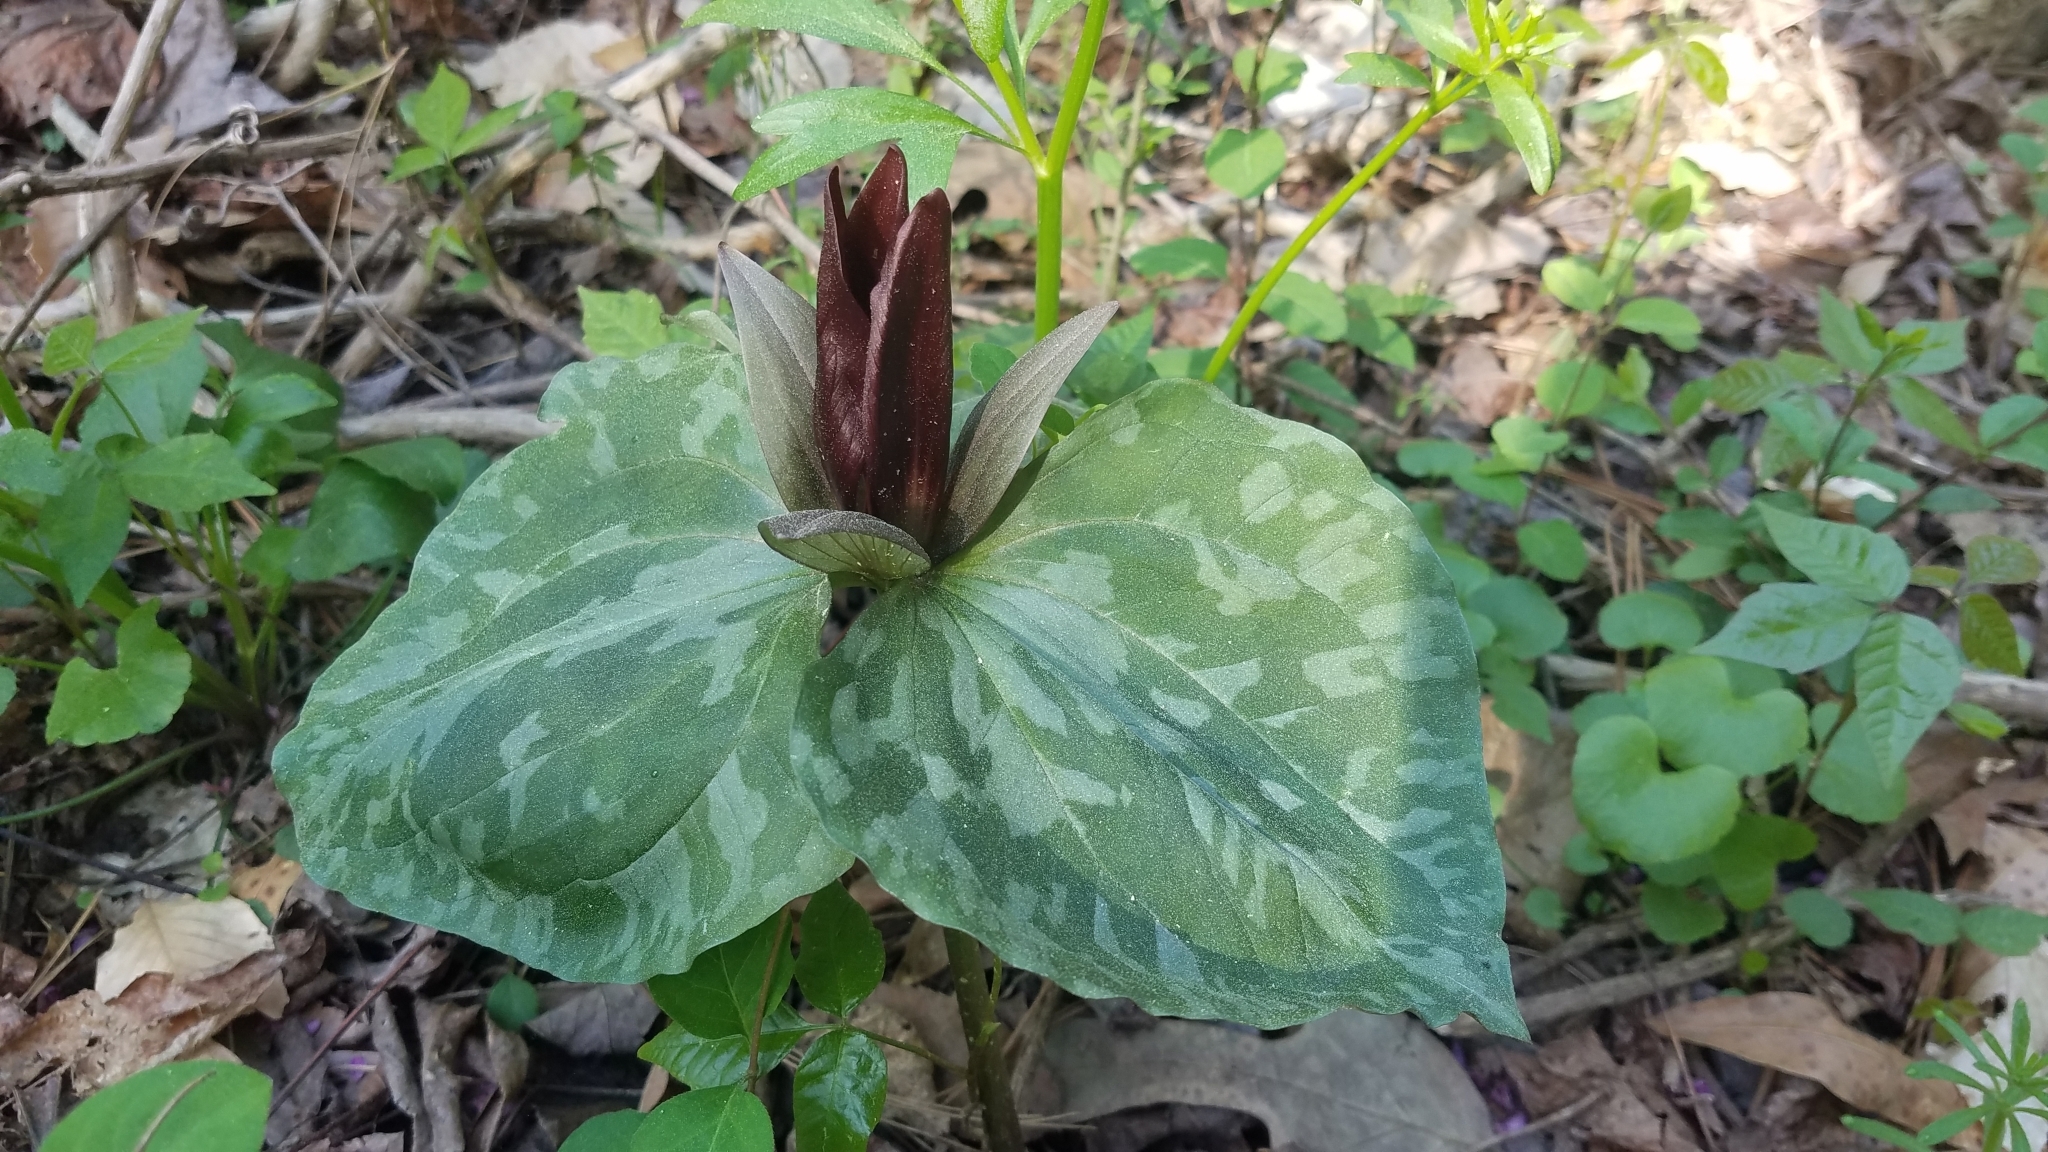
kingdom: Plantae
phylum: Tracheophyta
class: Liliopsida
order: Liliales
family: Melanthiaceae
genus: Trillium
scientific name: Trillium cuneatum
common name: Cuneate trillium
